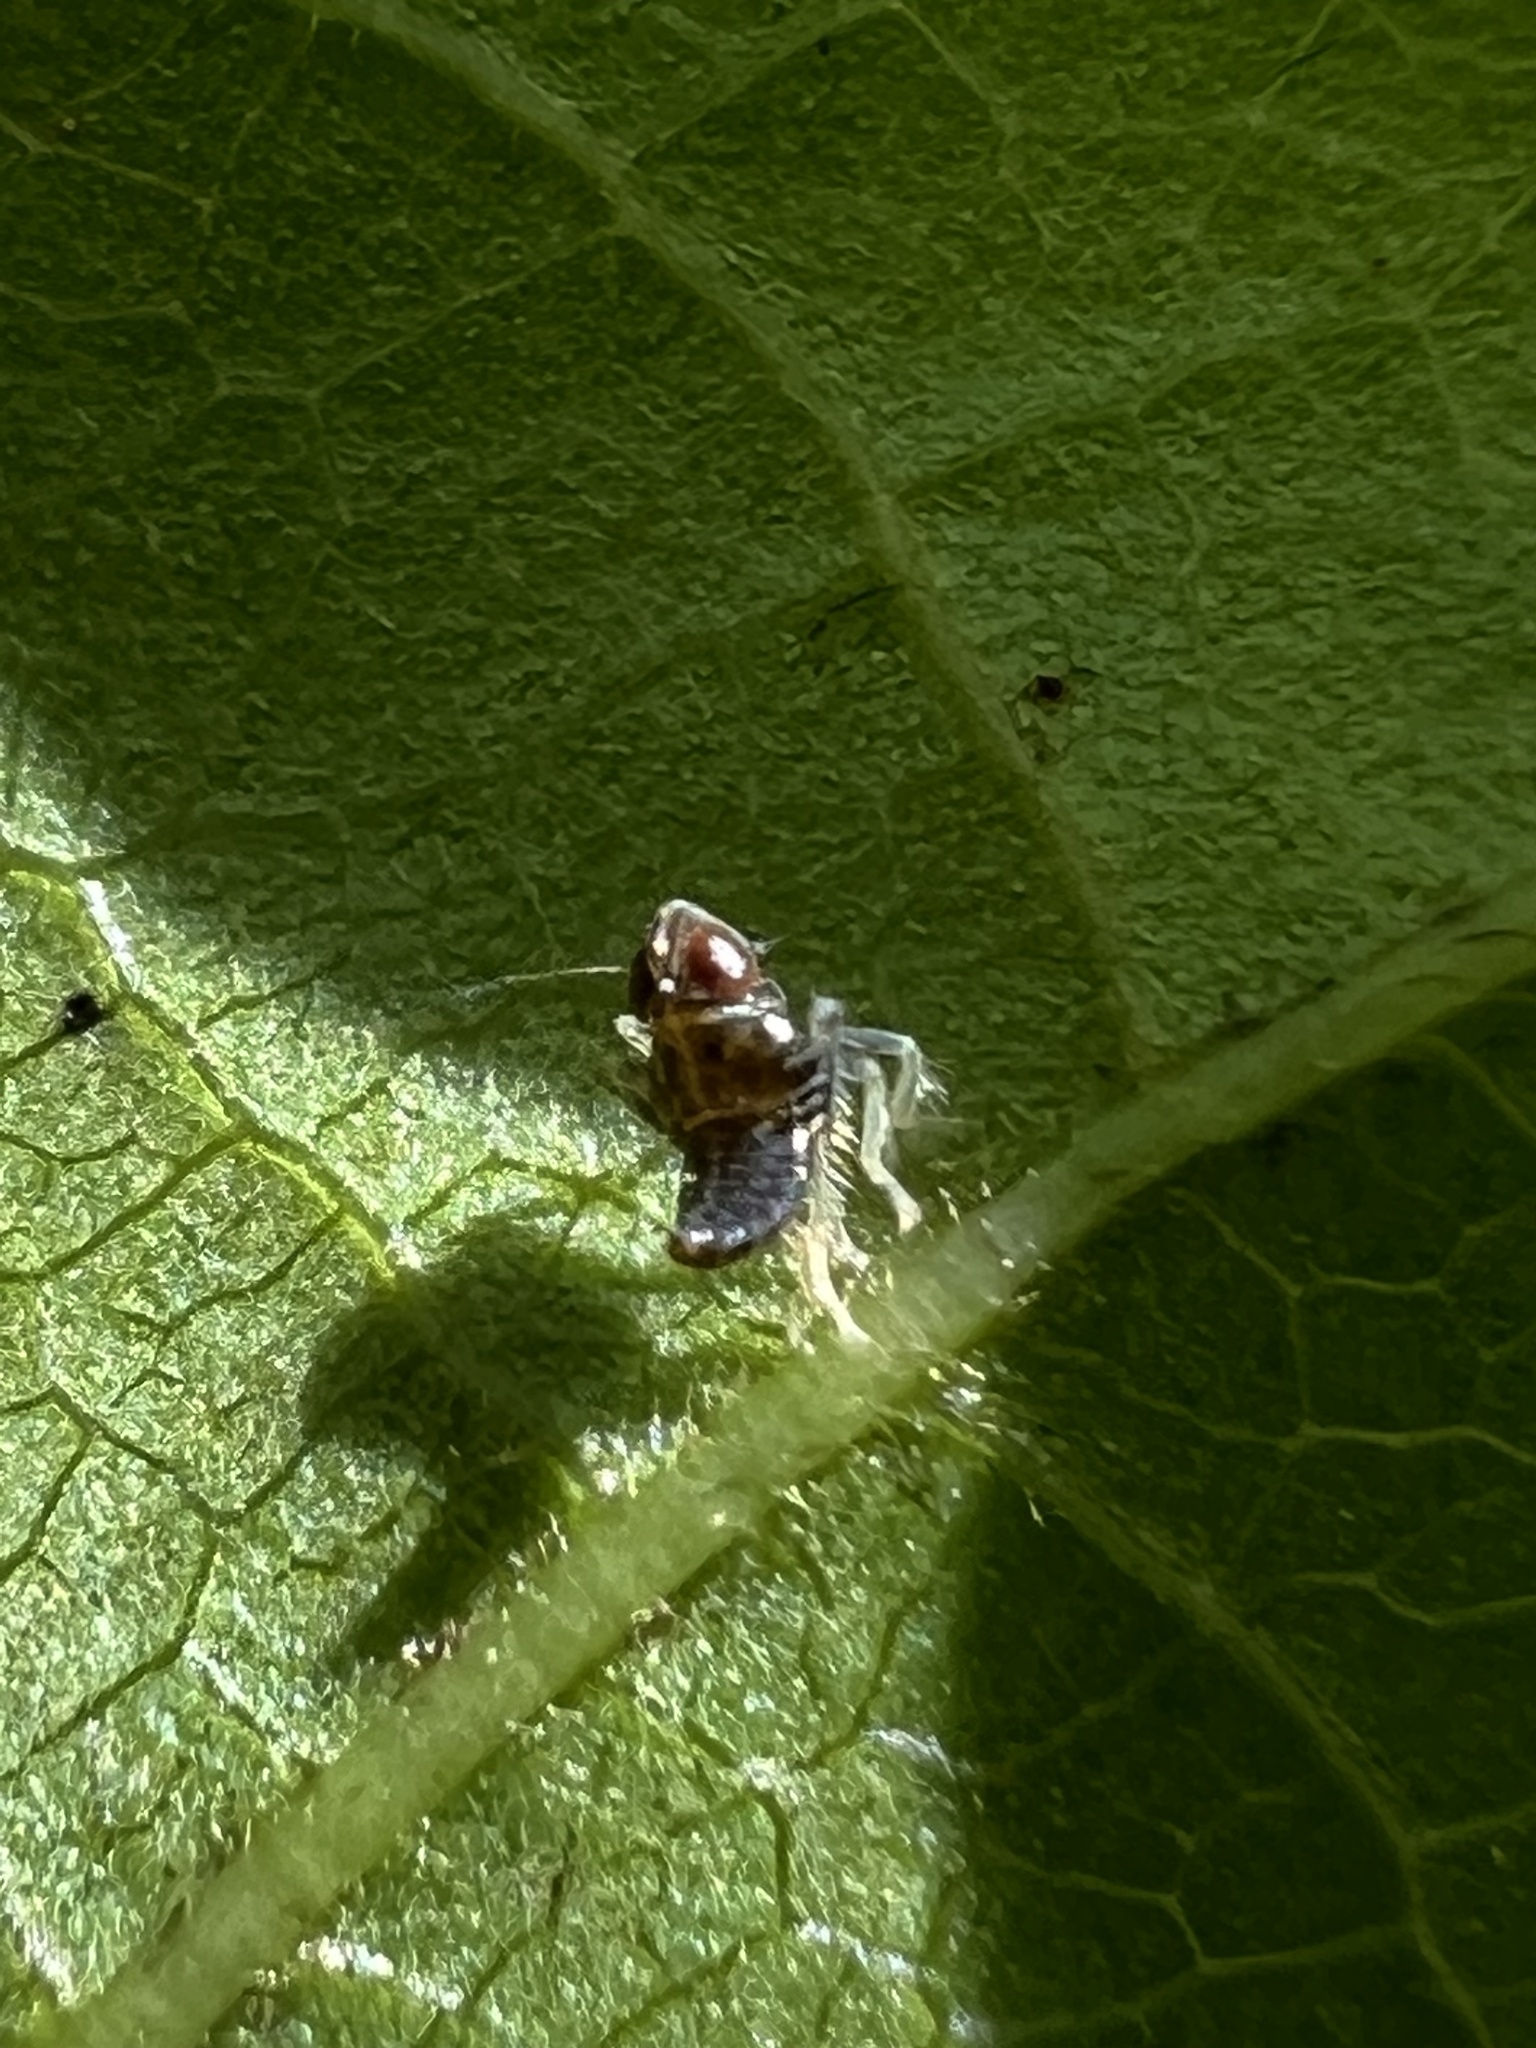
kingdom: Animalia
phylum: Arthropoda
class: Insecta
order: Hemiptera
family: Cicadellidae
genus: Jikradia
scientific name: Jikradia olitoria
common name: Coppery leafhopper
